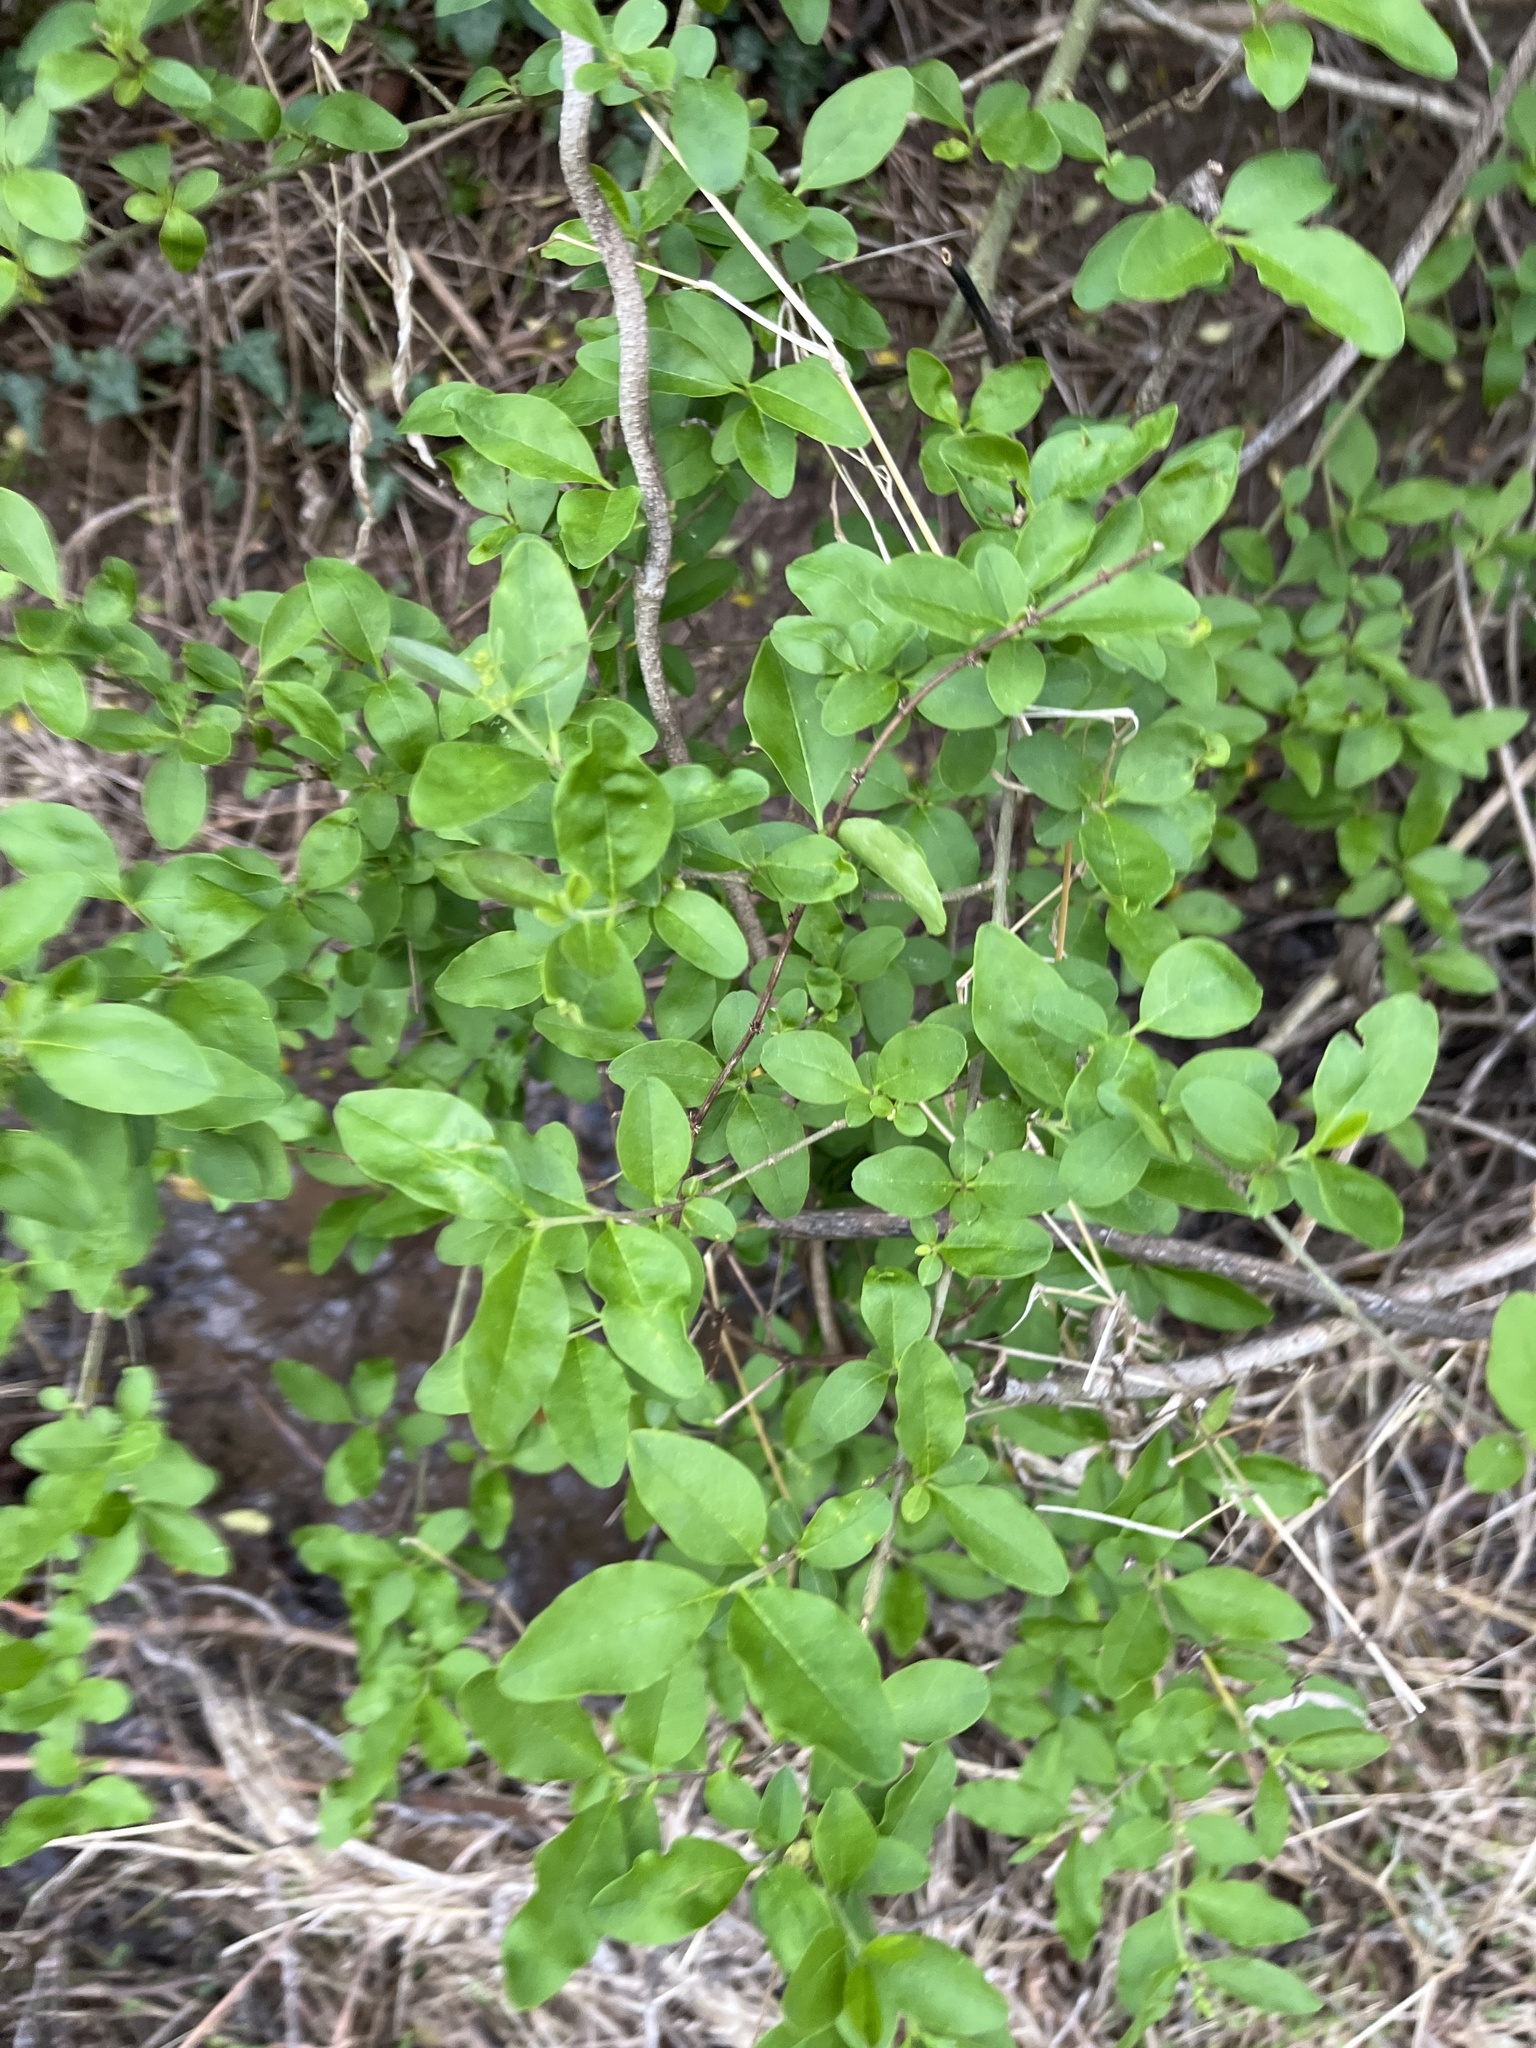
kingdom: Plantae
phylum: Tracheophyta
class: Magnoliopsida
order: Lamiales
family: Oleaceae
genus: Ligustrum
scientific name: Ligustrum sinense
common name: Chinese privet
